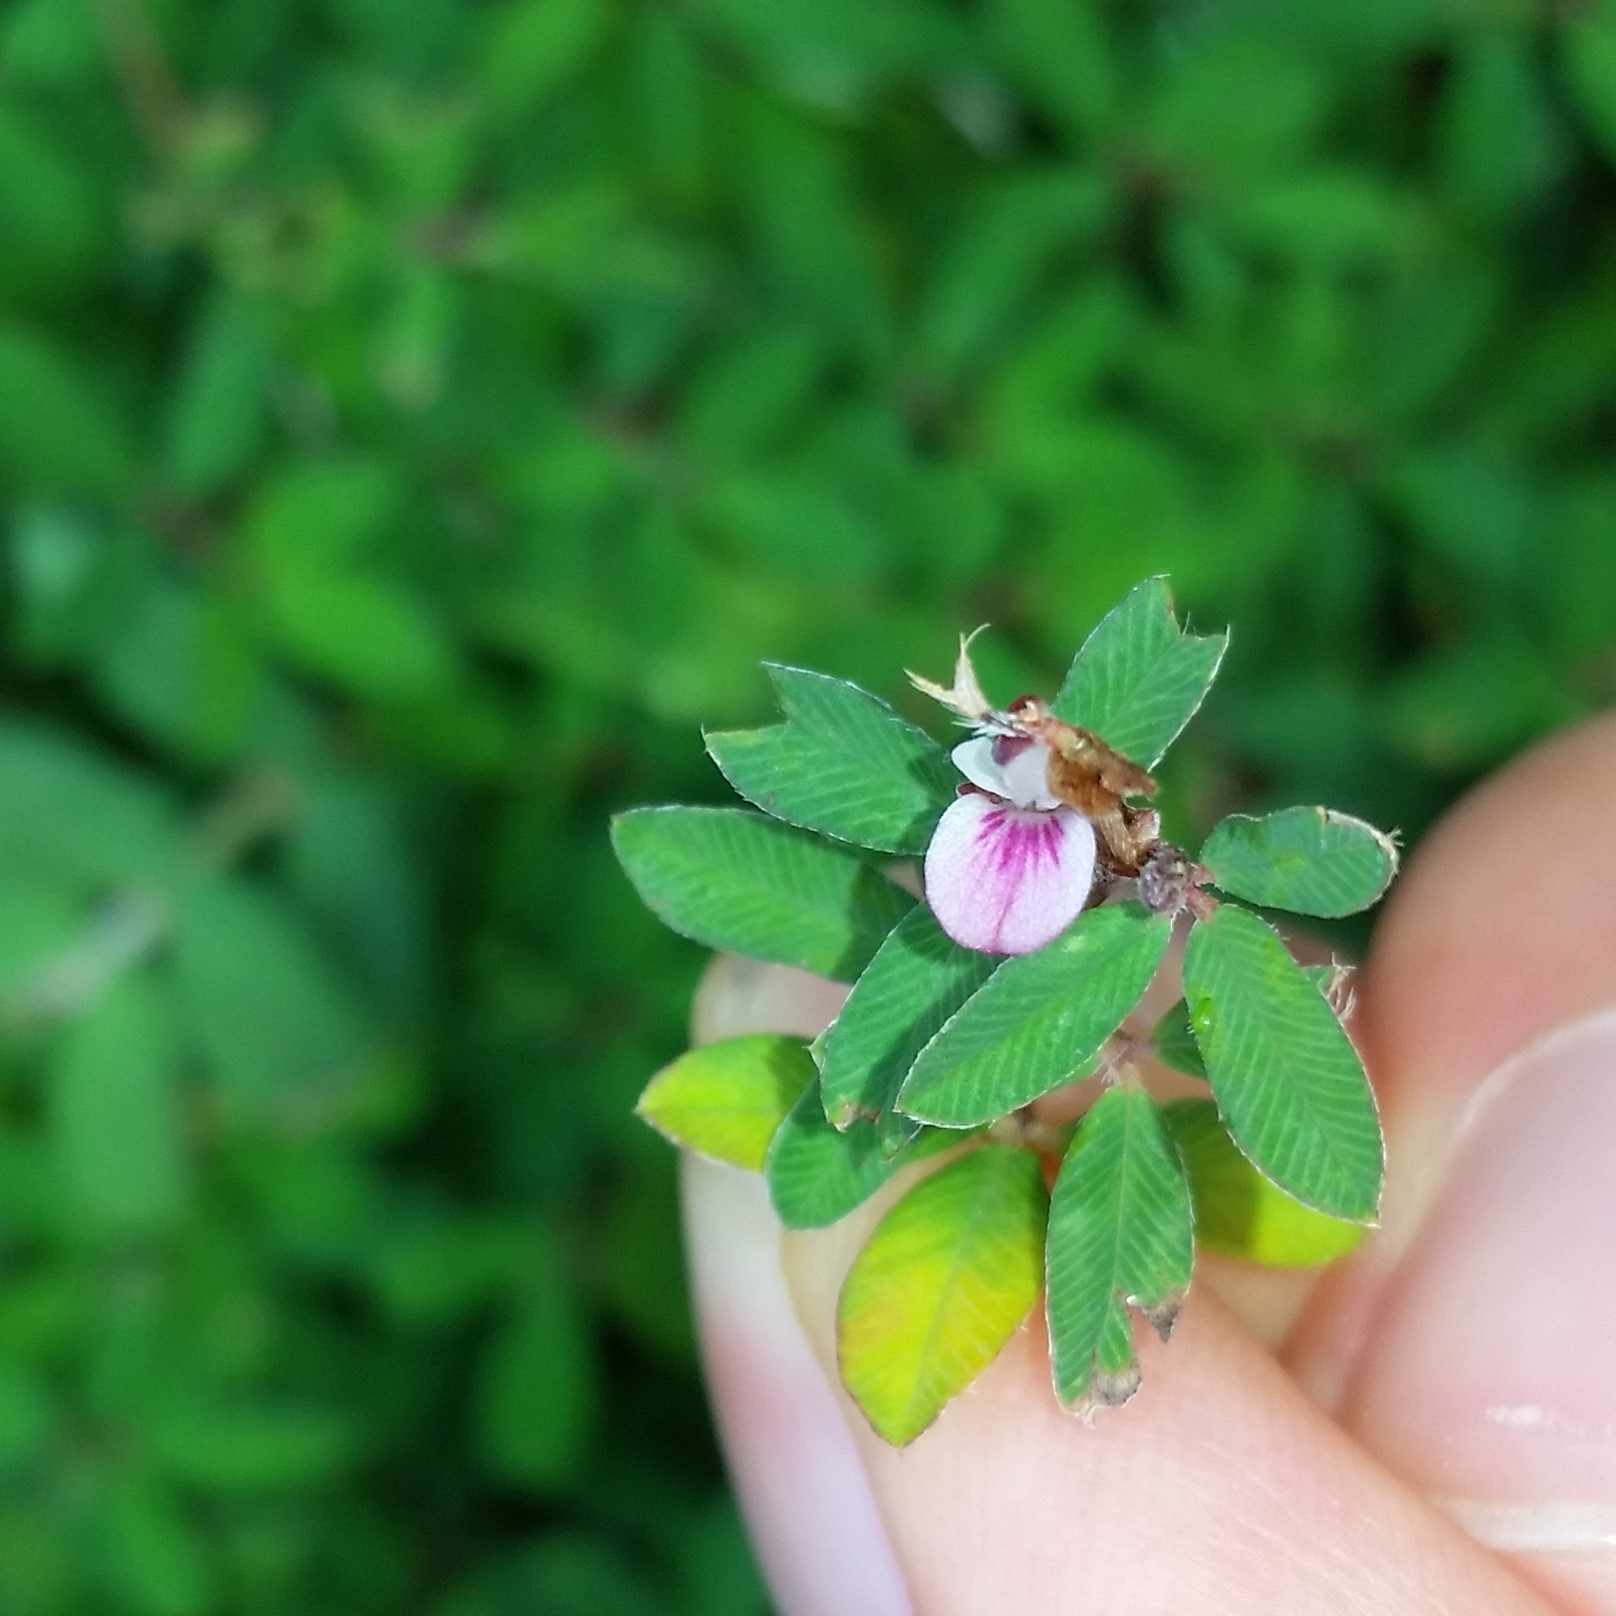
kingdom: Plantae
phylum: Tracheophyta
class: Magnoliopsida
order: Fabales
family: Fabaceae
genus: Kummerowia
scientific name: Kummerowia striata
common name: Japanese clover
